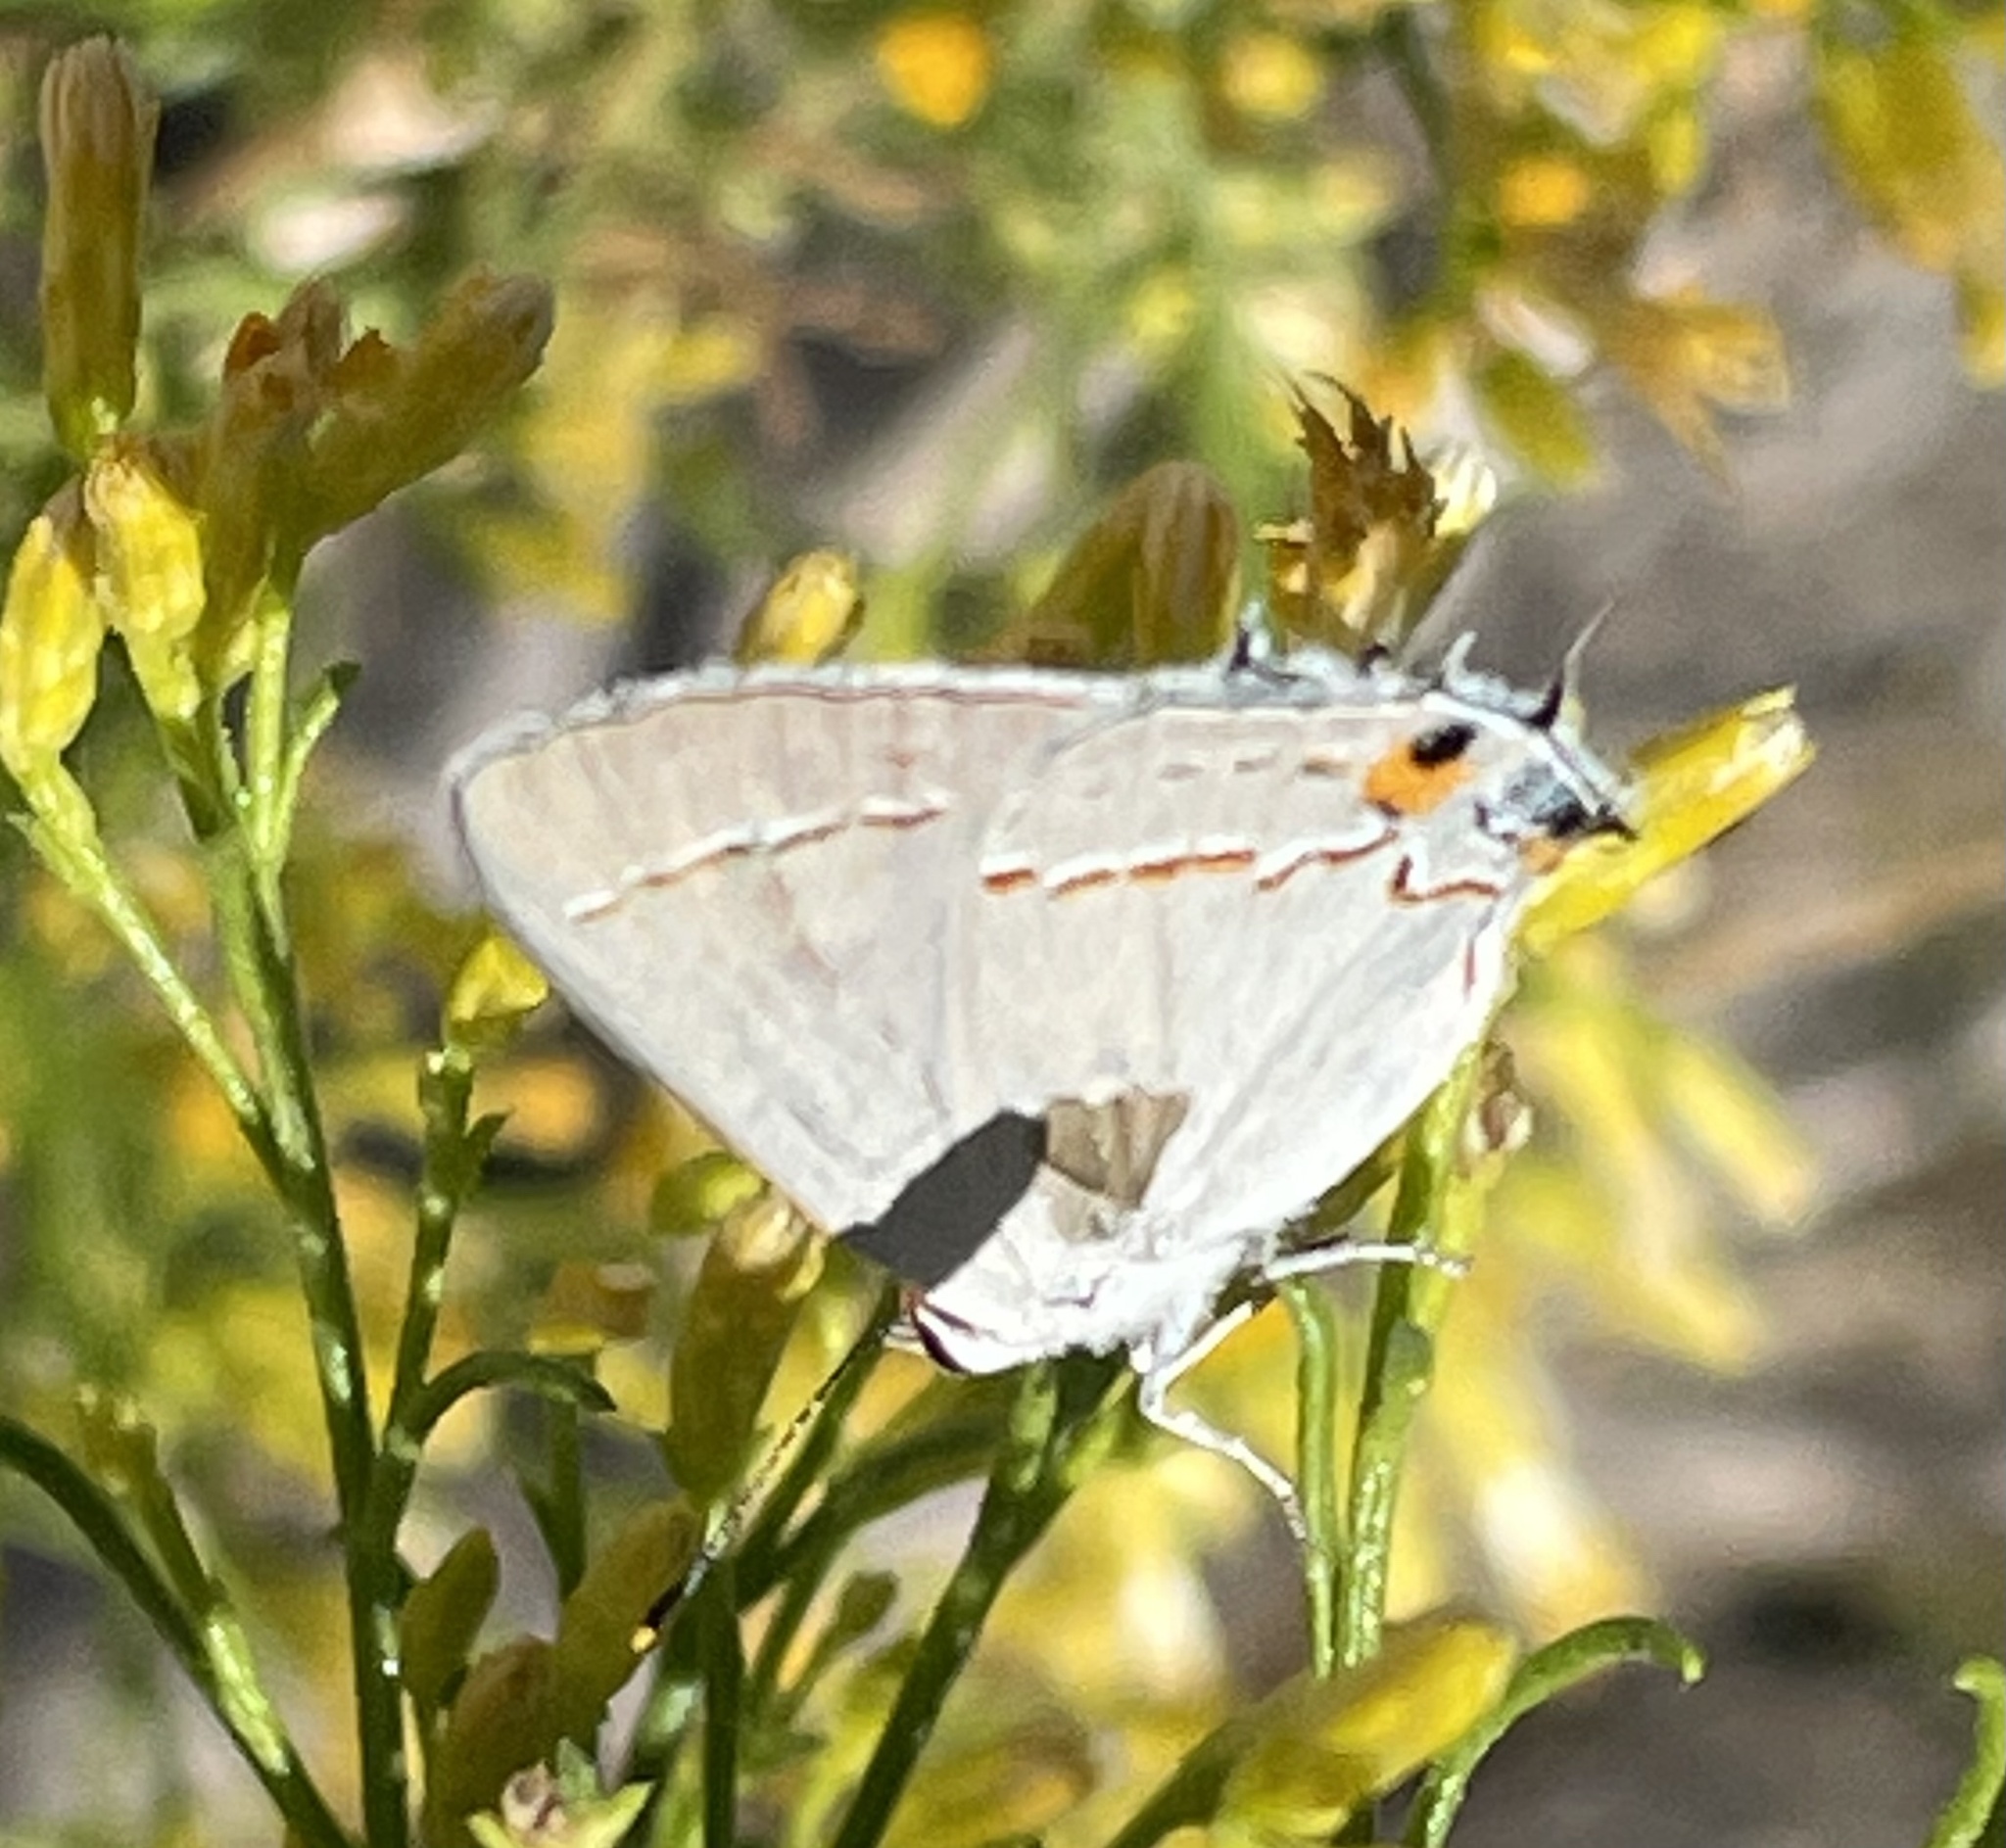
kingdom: Animalia
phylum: Arthropoda
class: Insecta
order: Lepidoptera
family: Lycaenidae
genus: Strymon
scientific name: Strymon melinus
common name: Gray hairstreak
